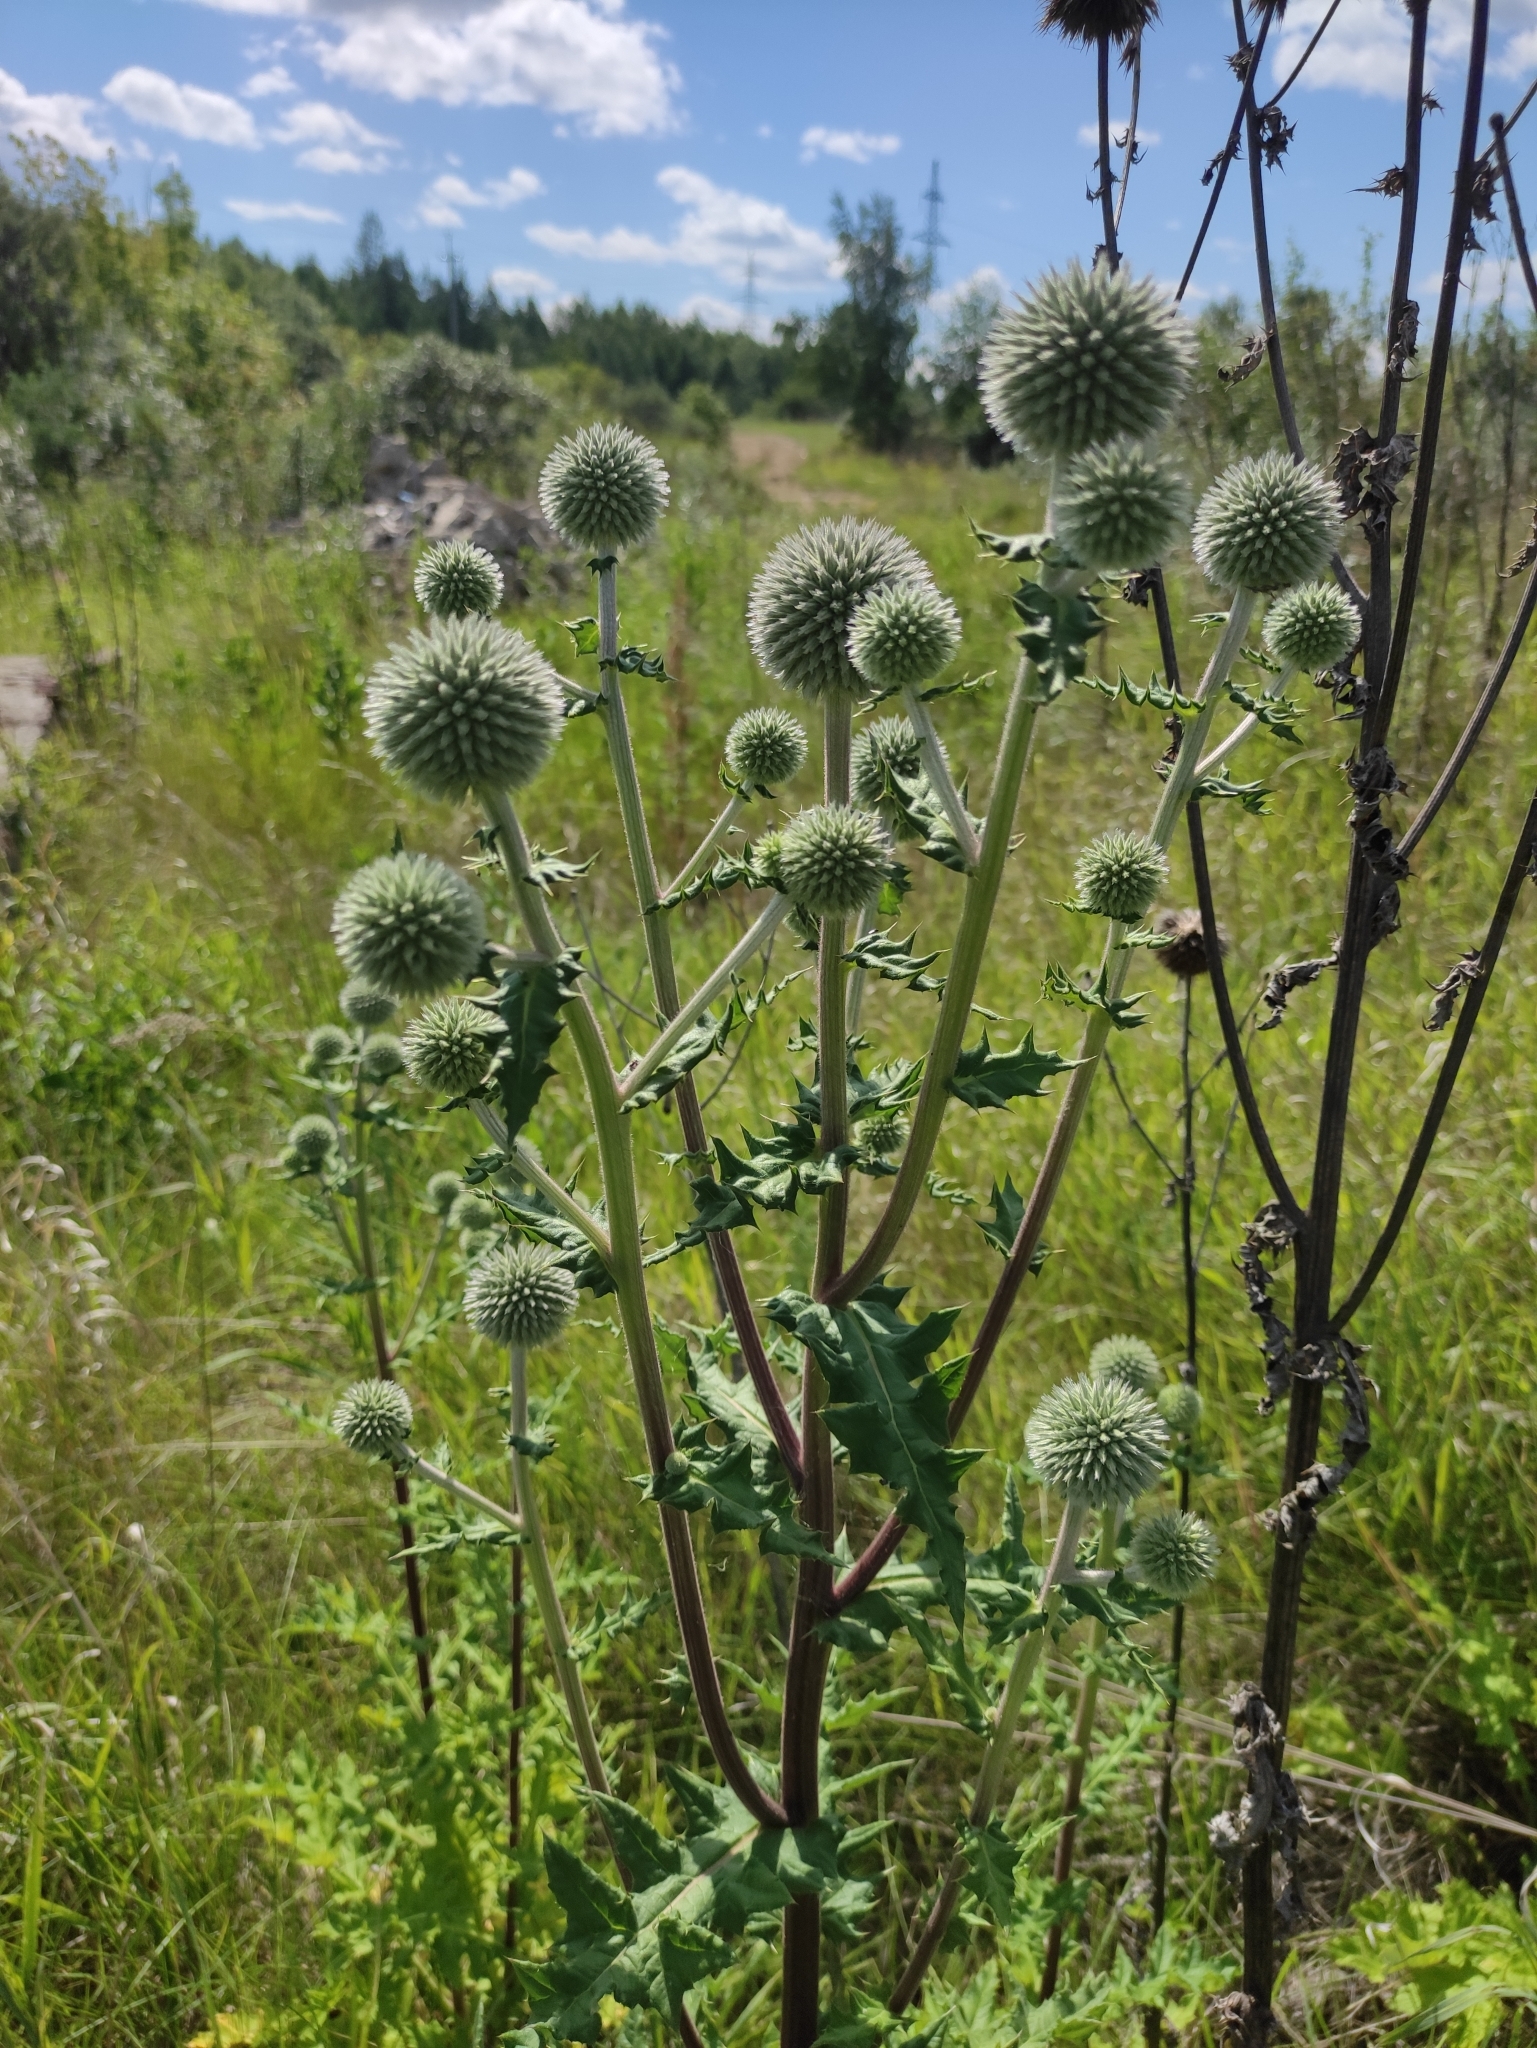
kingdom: Plantae
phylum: Tracheophyta
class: Magnoliopsida
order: Asterales
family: Asteraceae
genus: Echinops
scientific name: Echinops sphaerocephalus
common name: Glandular globe-thistle
